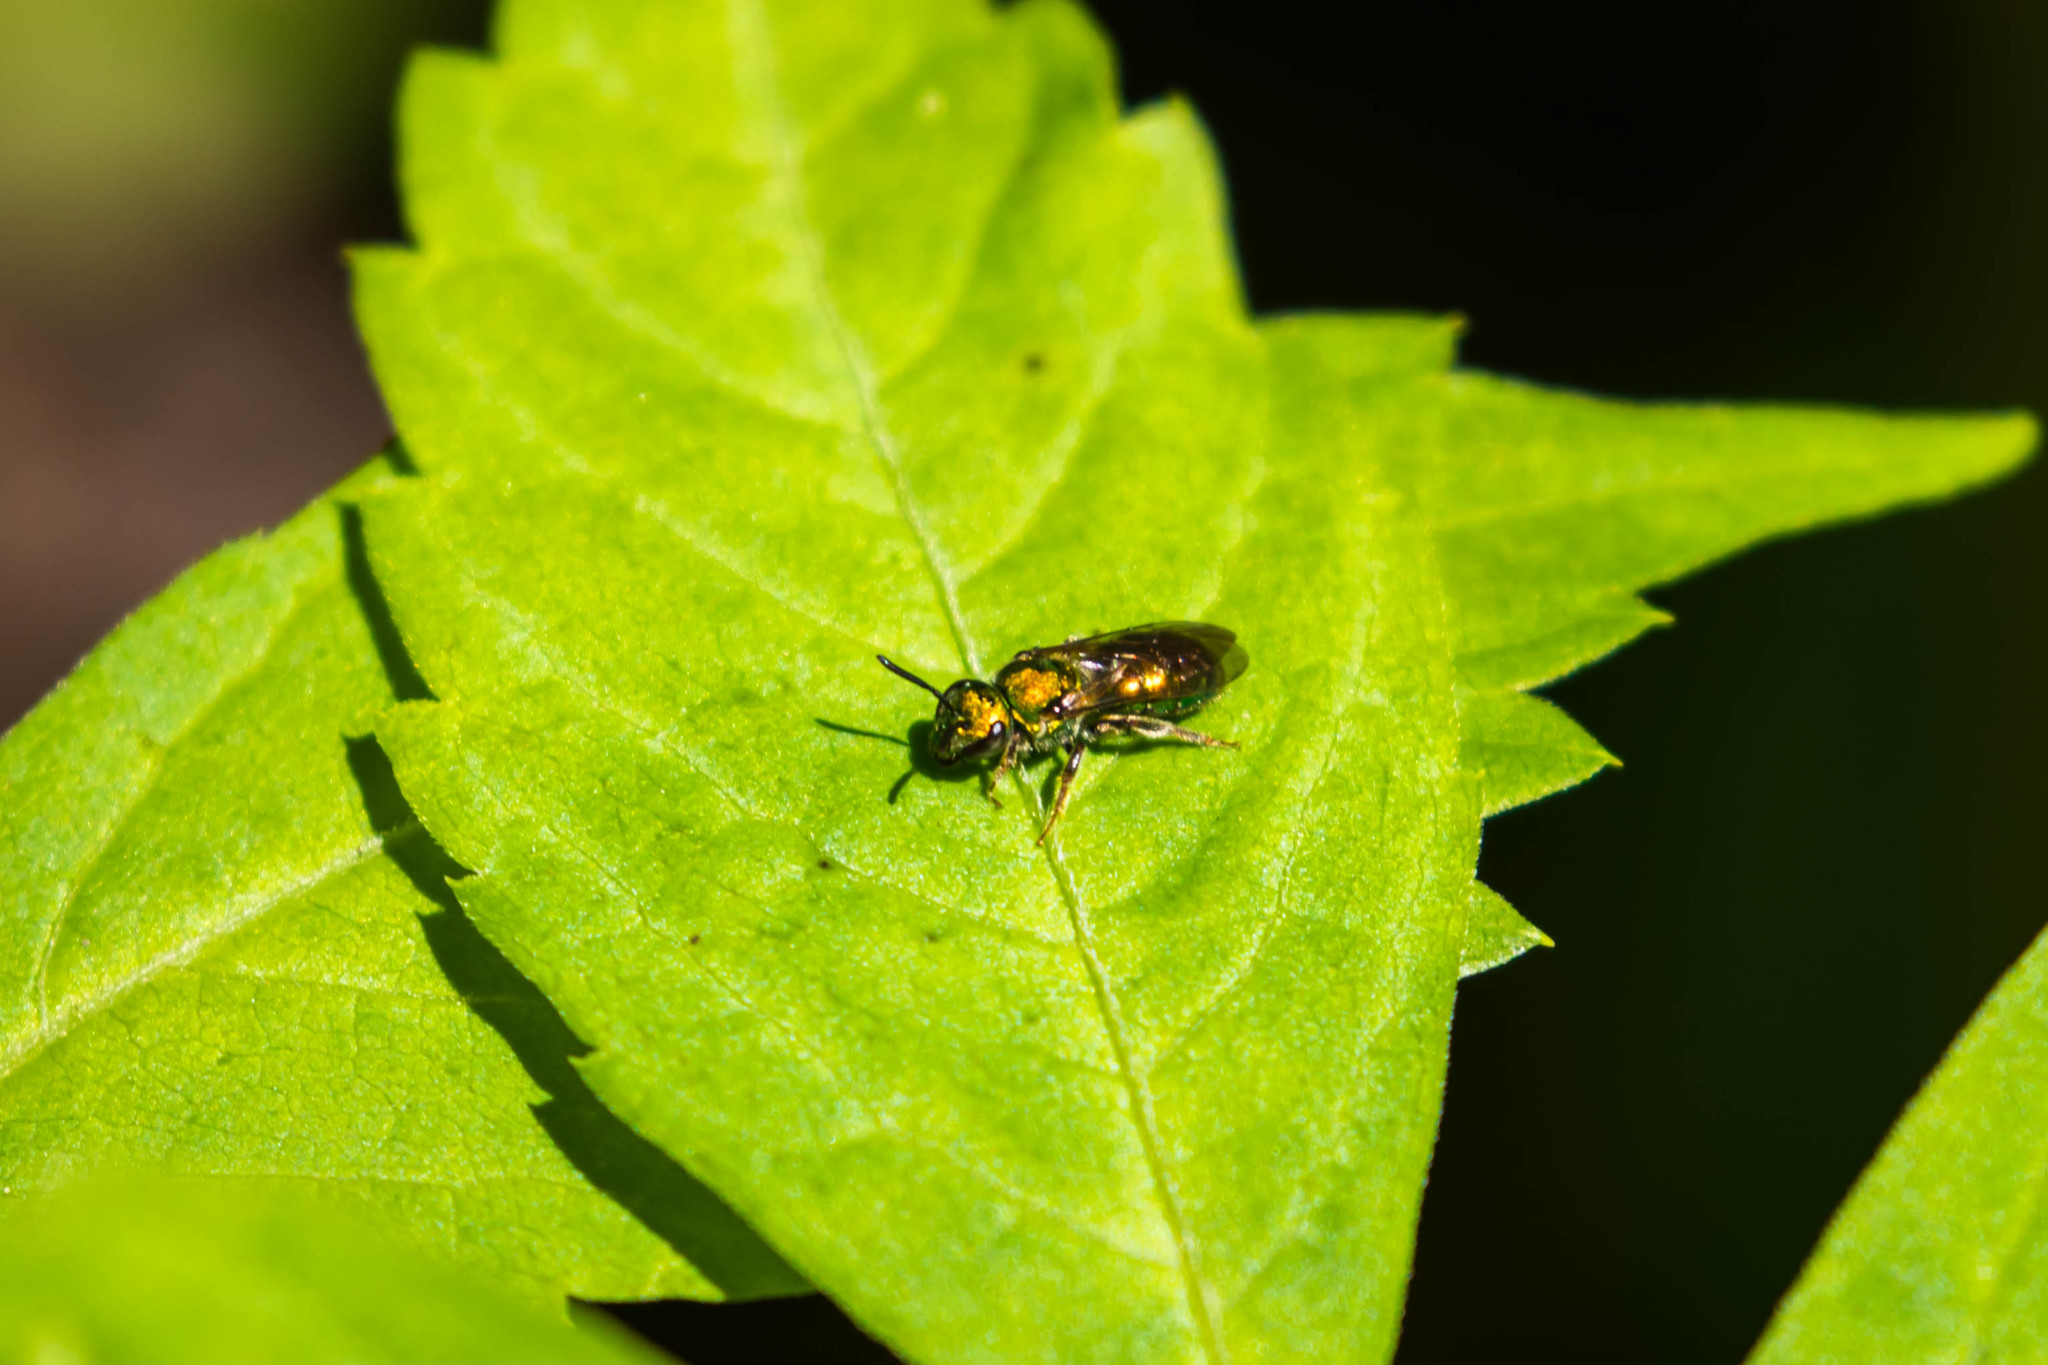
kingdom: Animalia
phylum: Arthropoda
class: Insecta
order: Hymenoptera
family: Halictidae
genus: Augochlora
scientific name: Augochlora pura
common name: Pure green sweat bee
